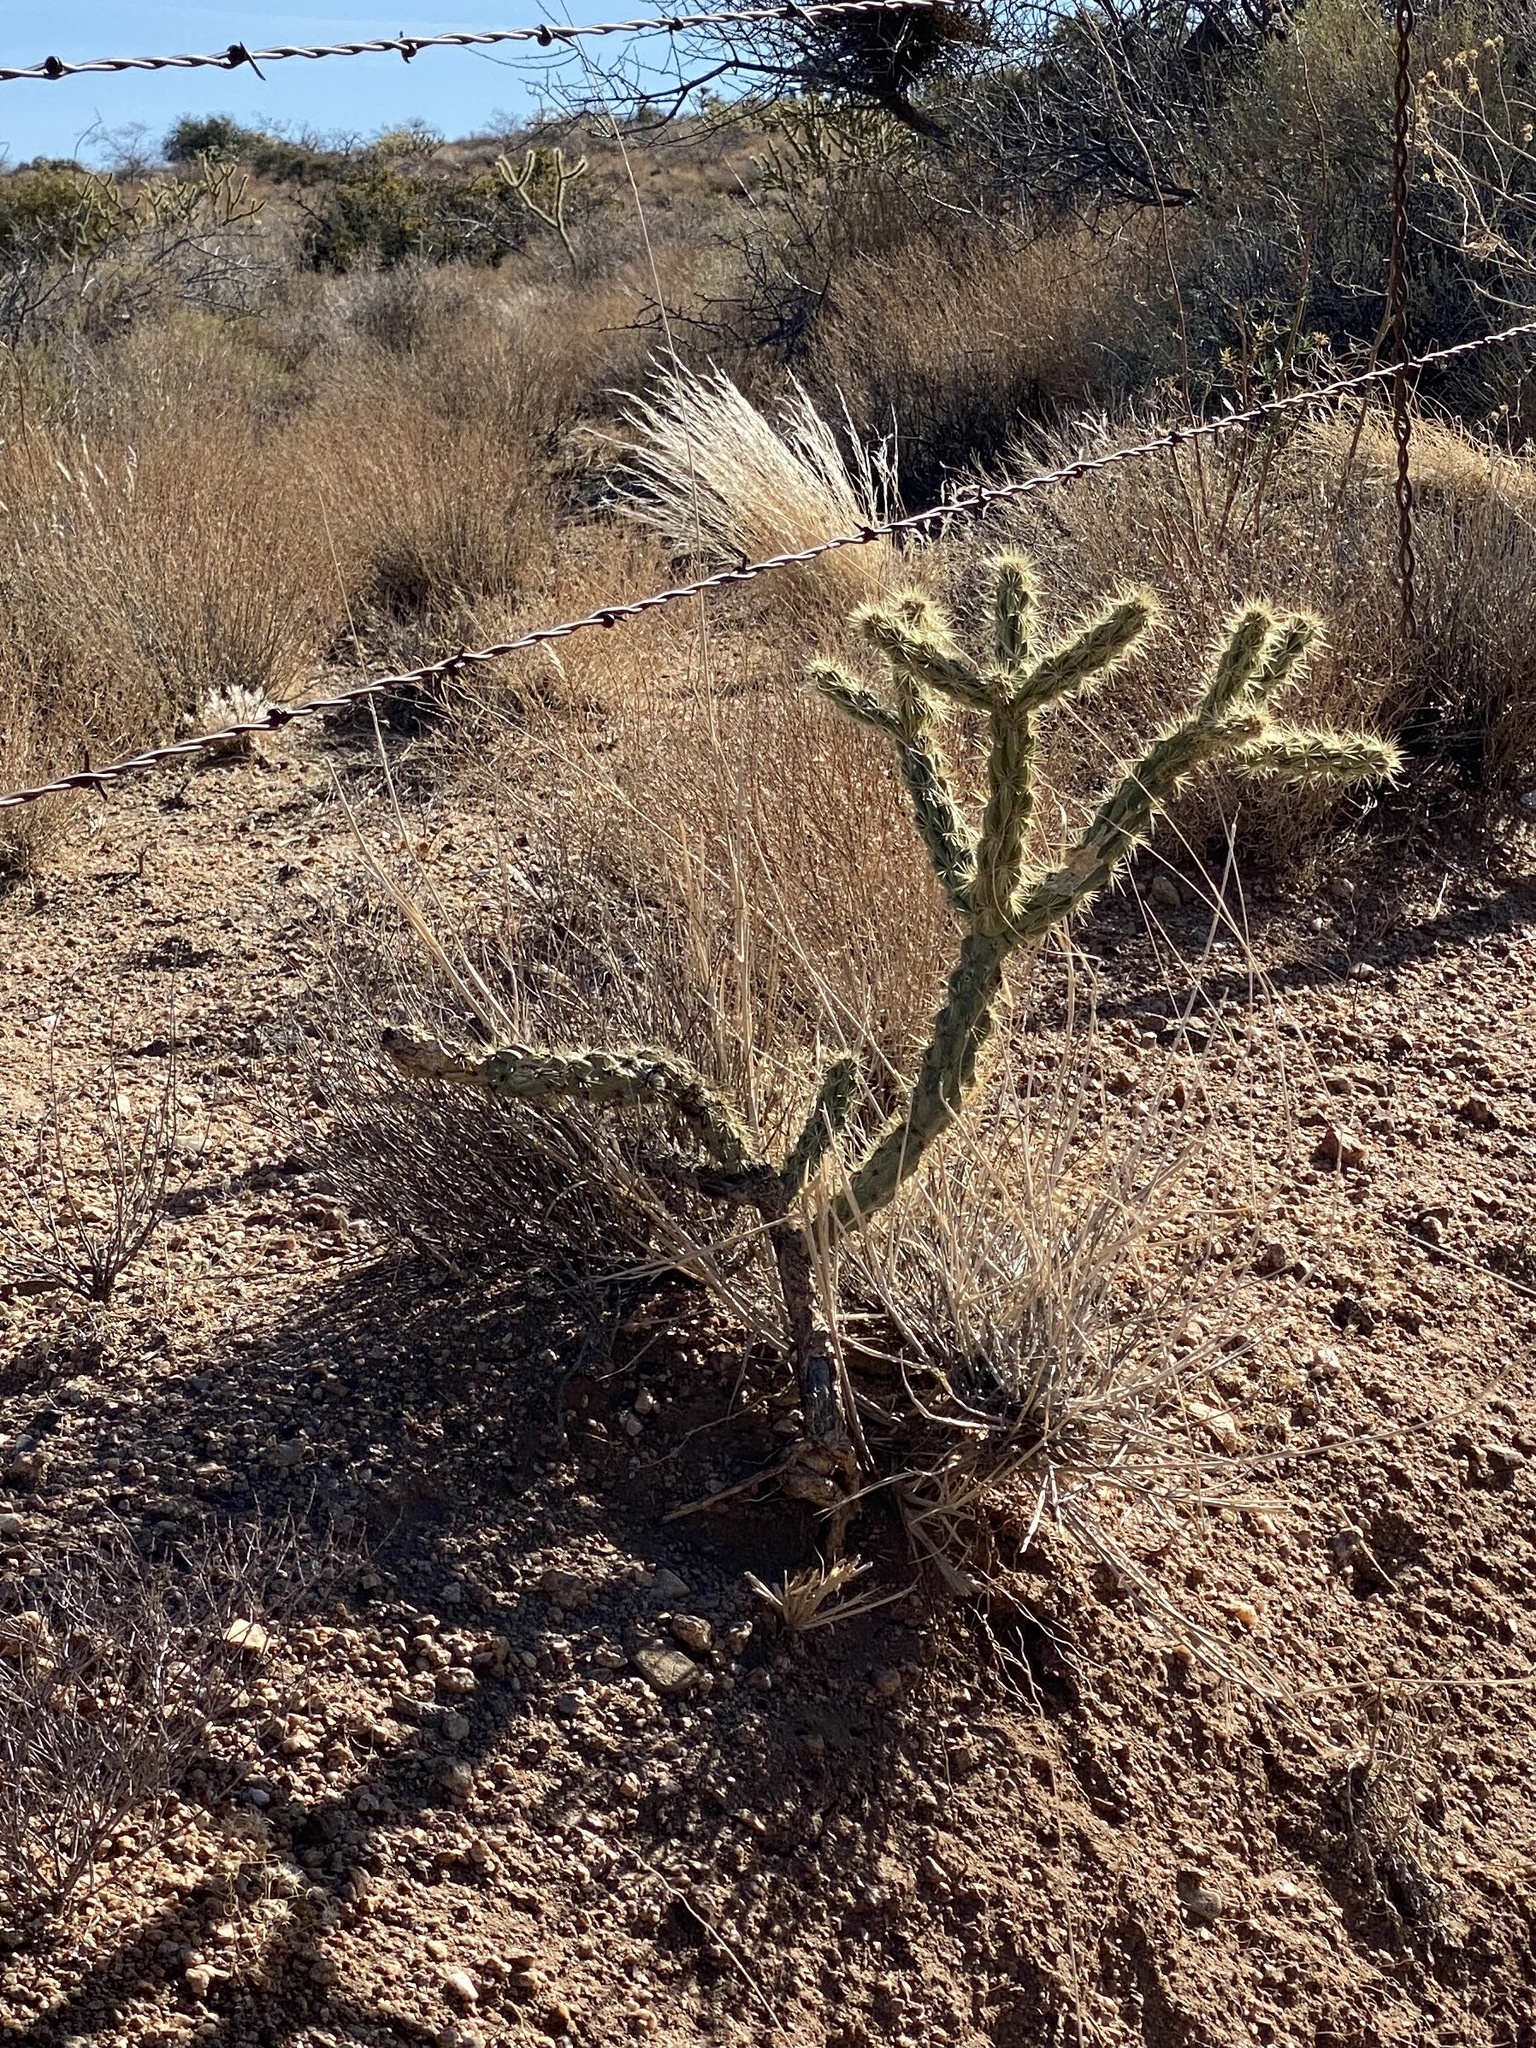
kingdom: Plantae
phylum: Tracheophyta
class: Magnoliopsida
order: Caryophyllales
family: Cactaceae
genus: Cylindropuntia
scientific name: Cylindropuntia acanthocarpa
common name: Buckhorn cholla
